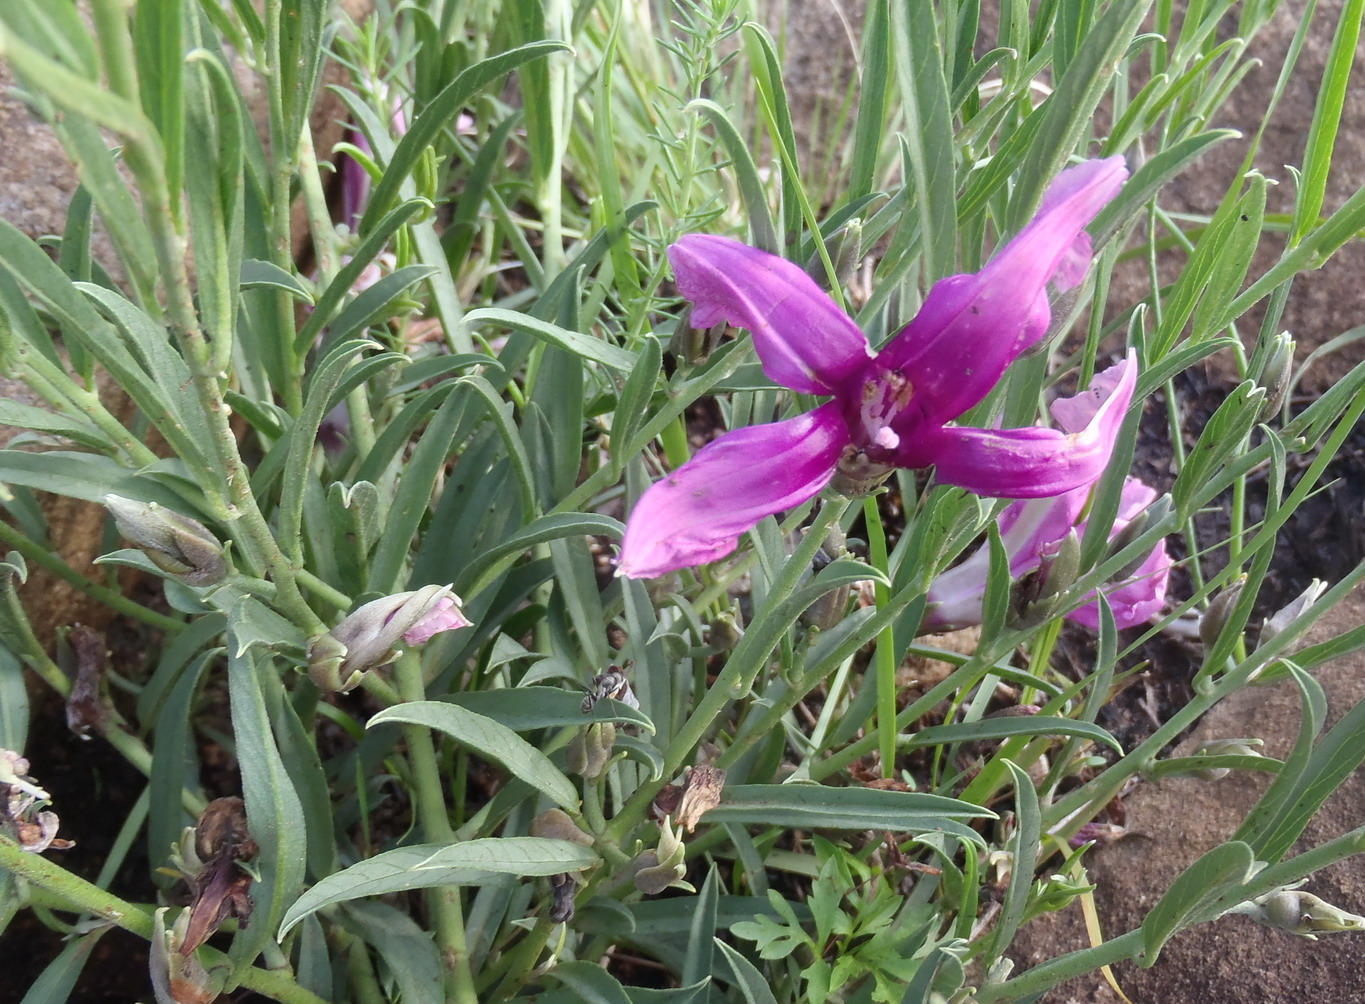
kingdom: Plantae
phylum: Tracheophyta
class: Magnoliopsida
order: Solanales
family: Convolvulaceae
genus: Ipomoea
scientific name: Ipomoea oenotheroides
